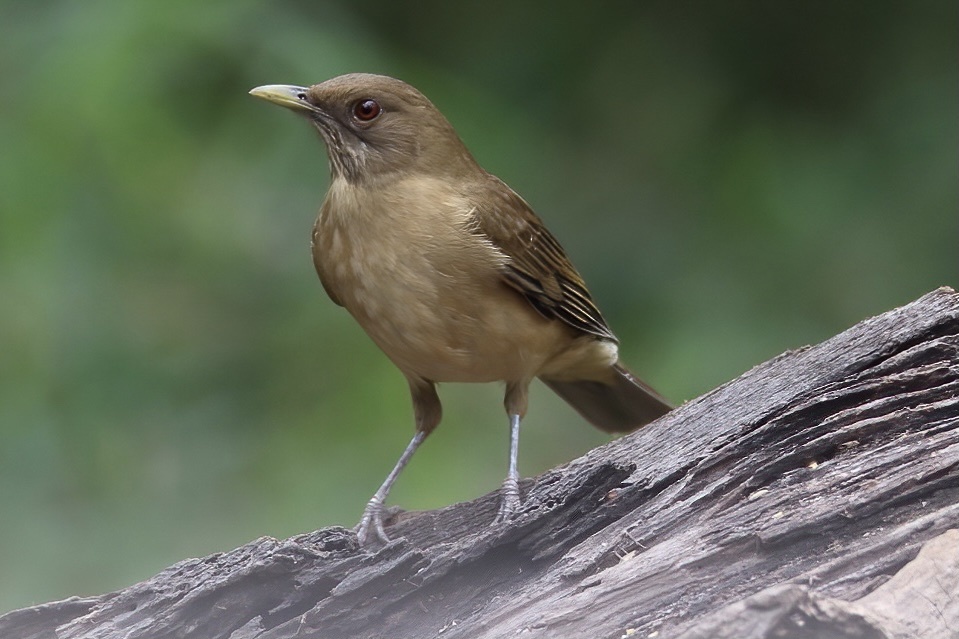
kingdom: Animalia
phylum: Chordata
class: Aves
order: Passeriformes
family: Turdidae
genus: Turdus
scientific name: Turdus grayi
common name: Clay-colored thrush
